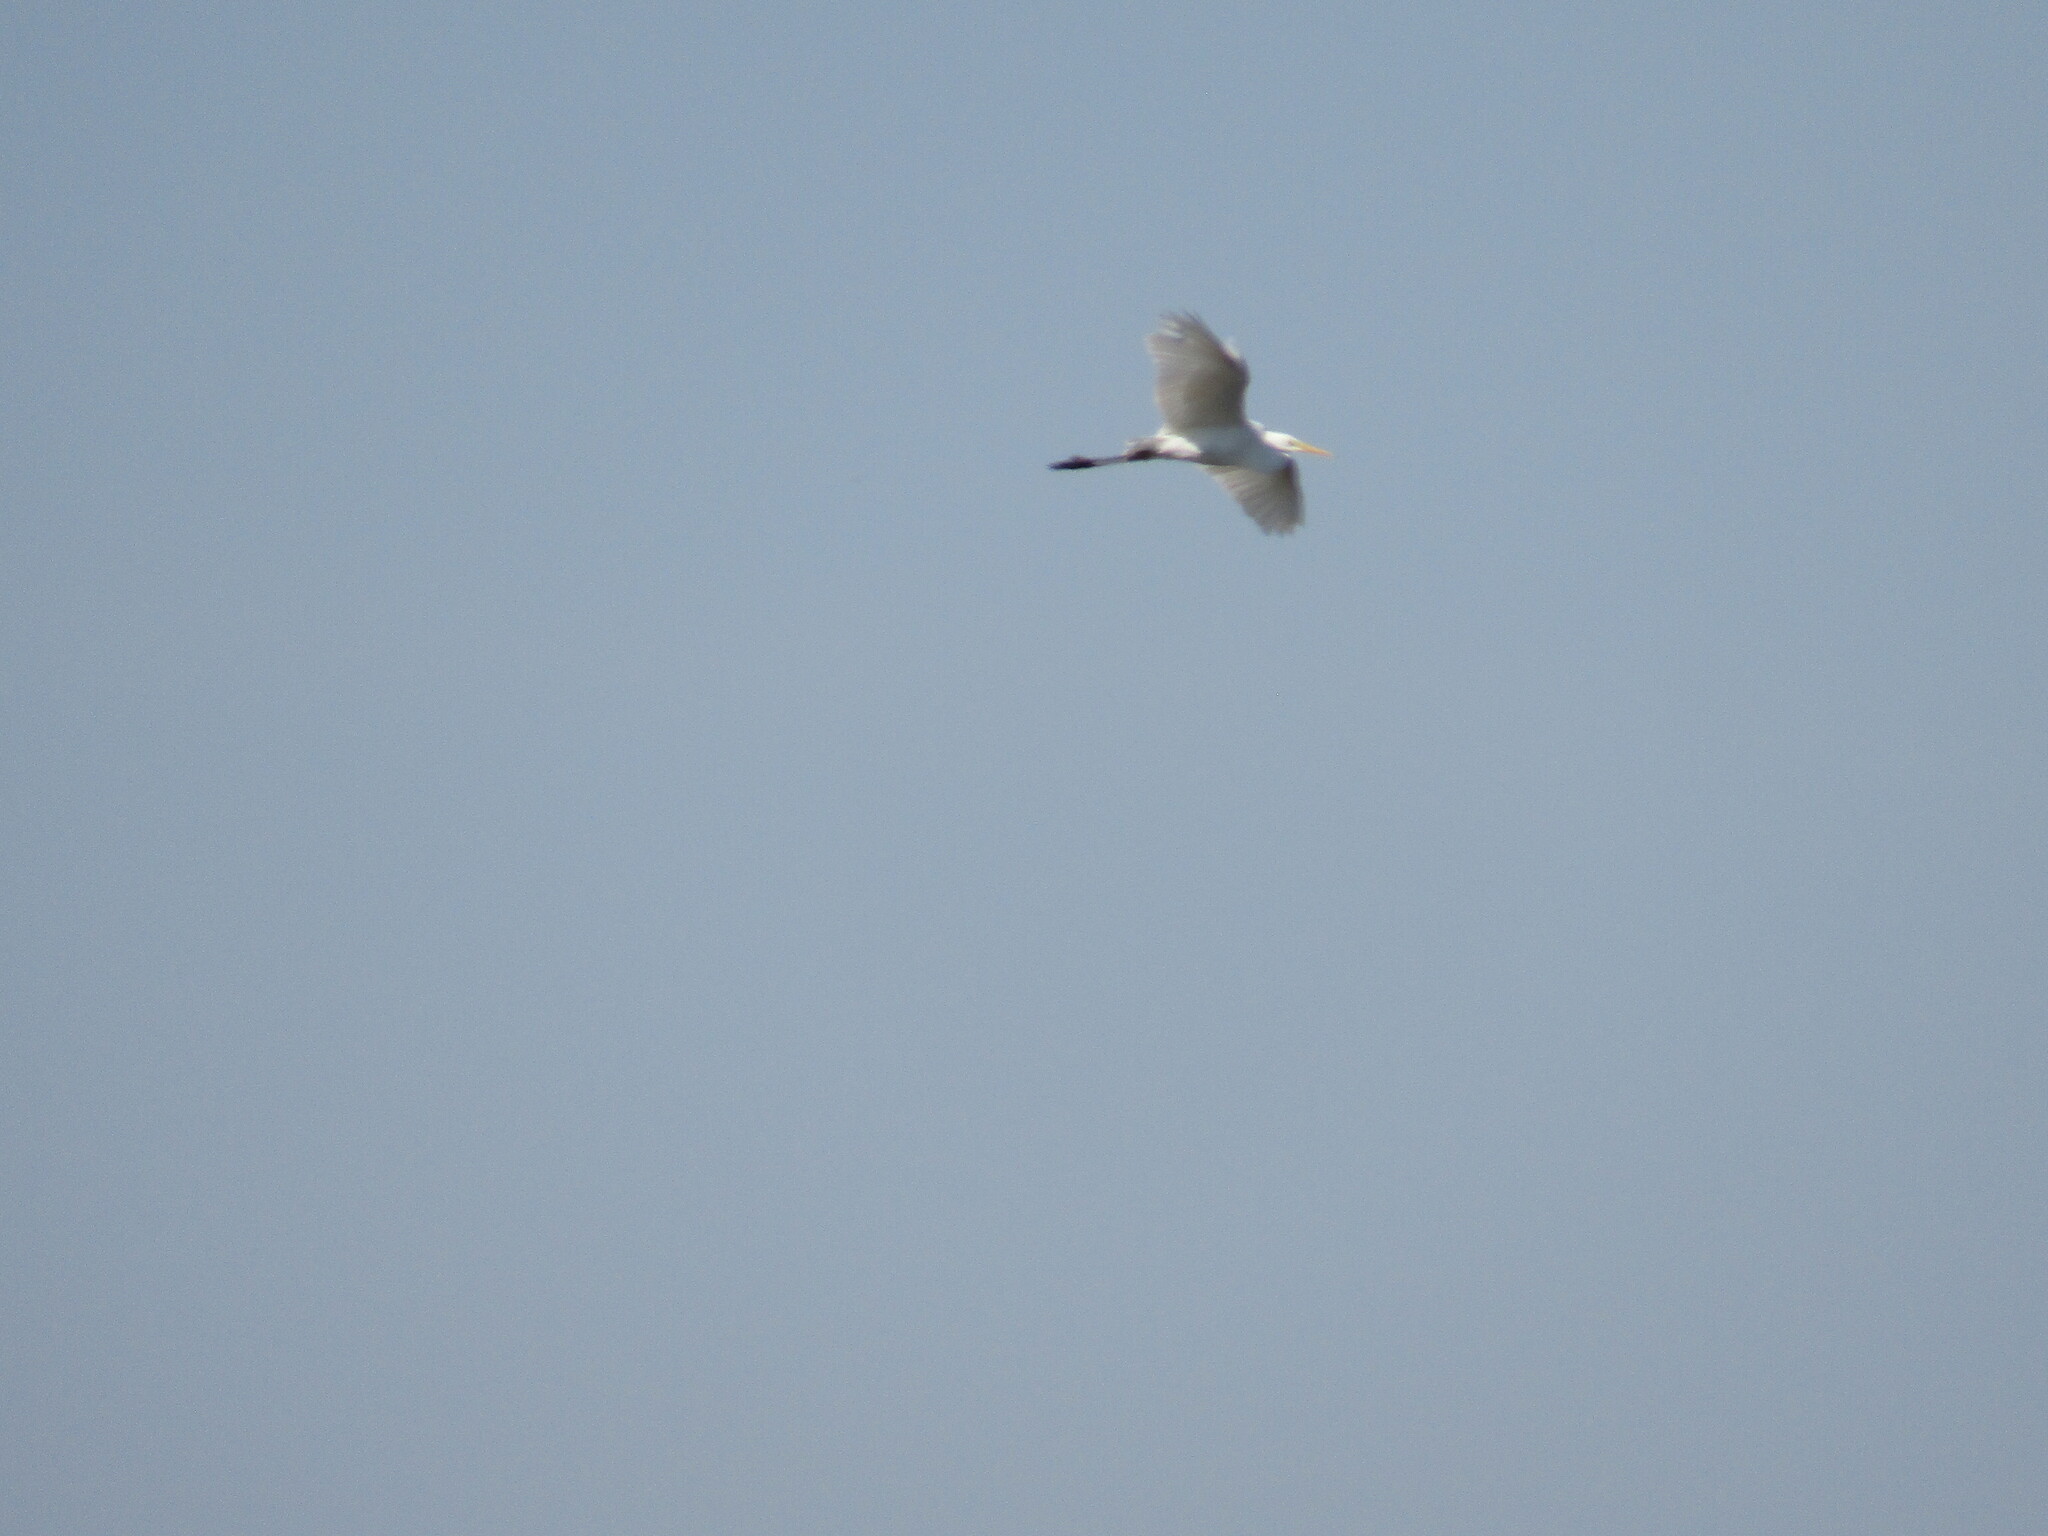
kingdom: Animalia
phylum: Chordata
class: Aves
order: Pelecaniformes
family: Ardeidae
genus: Ardea
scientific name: Ardea alba
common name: Great egret
